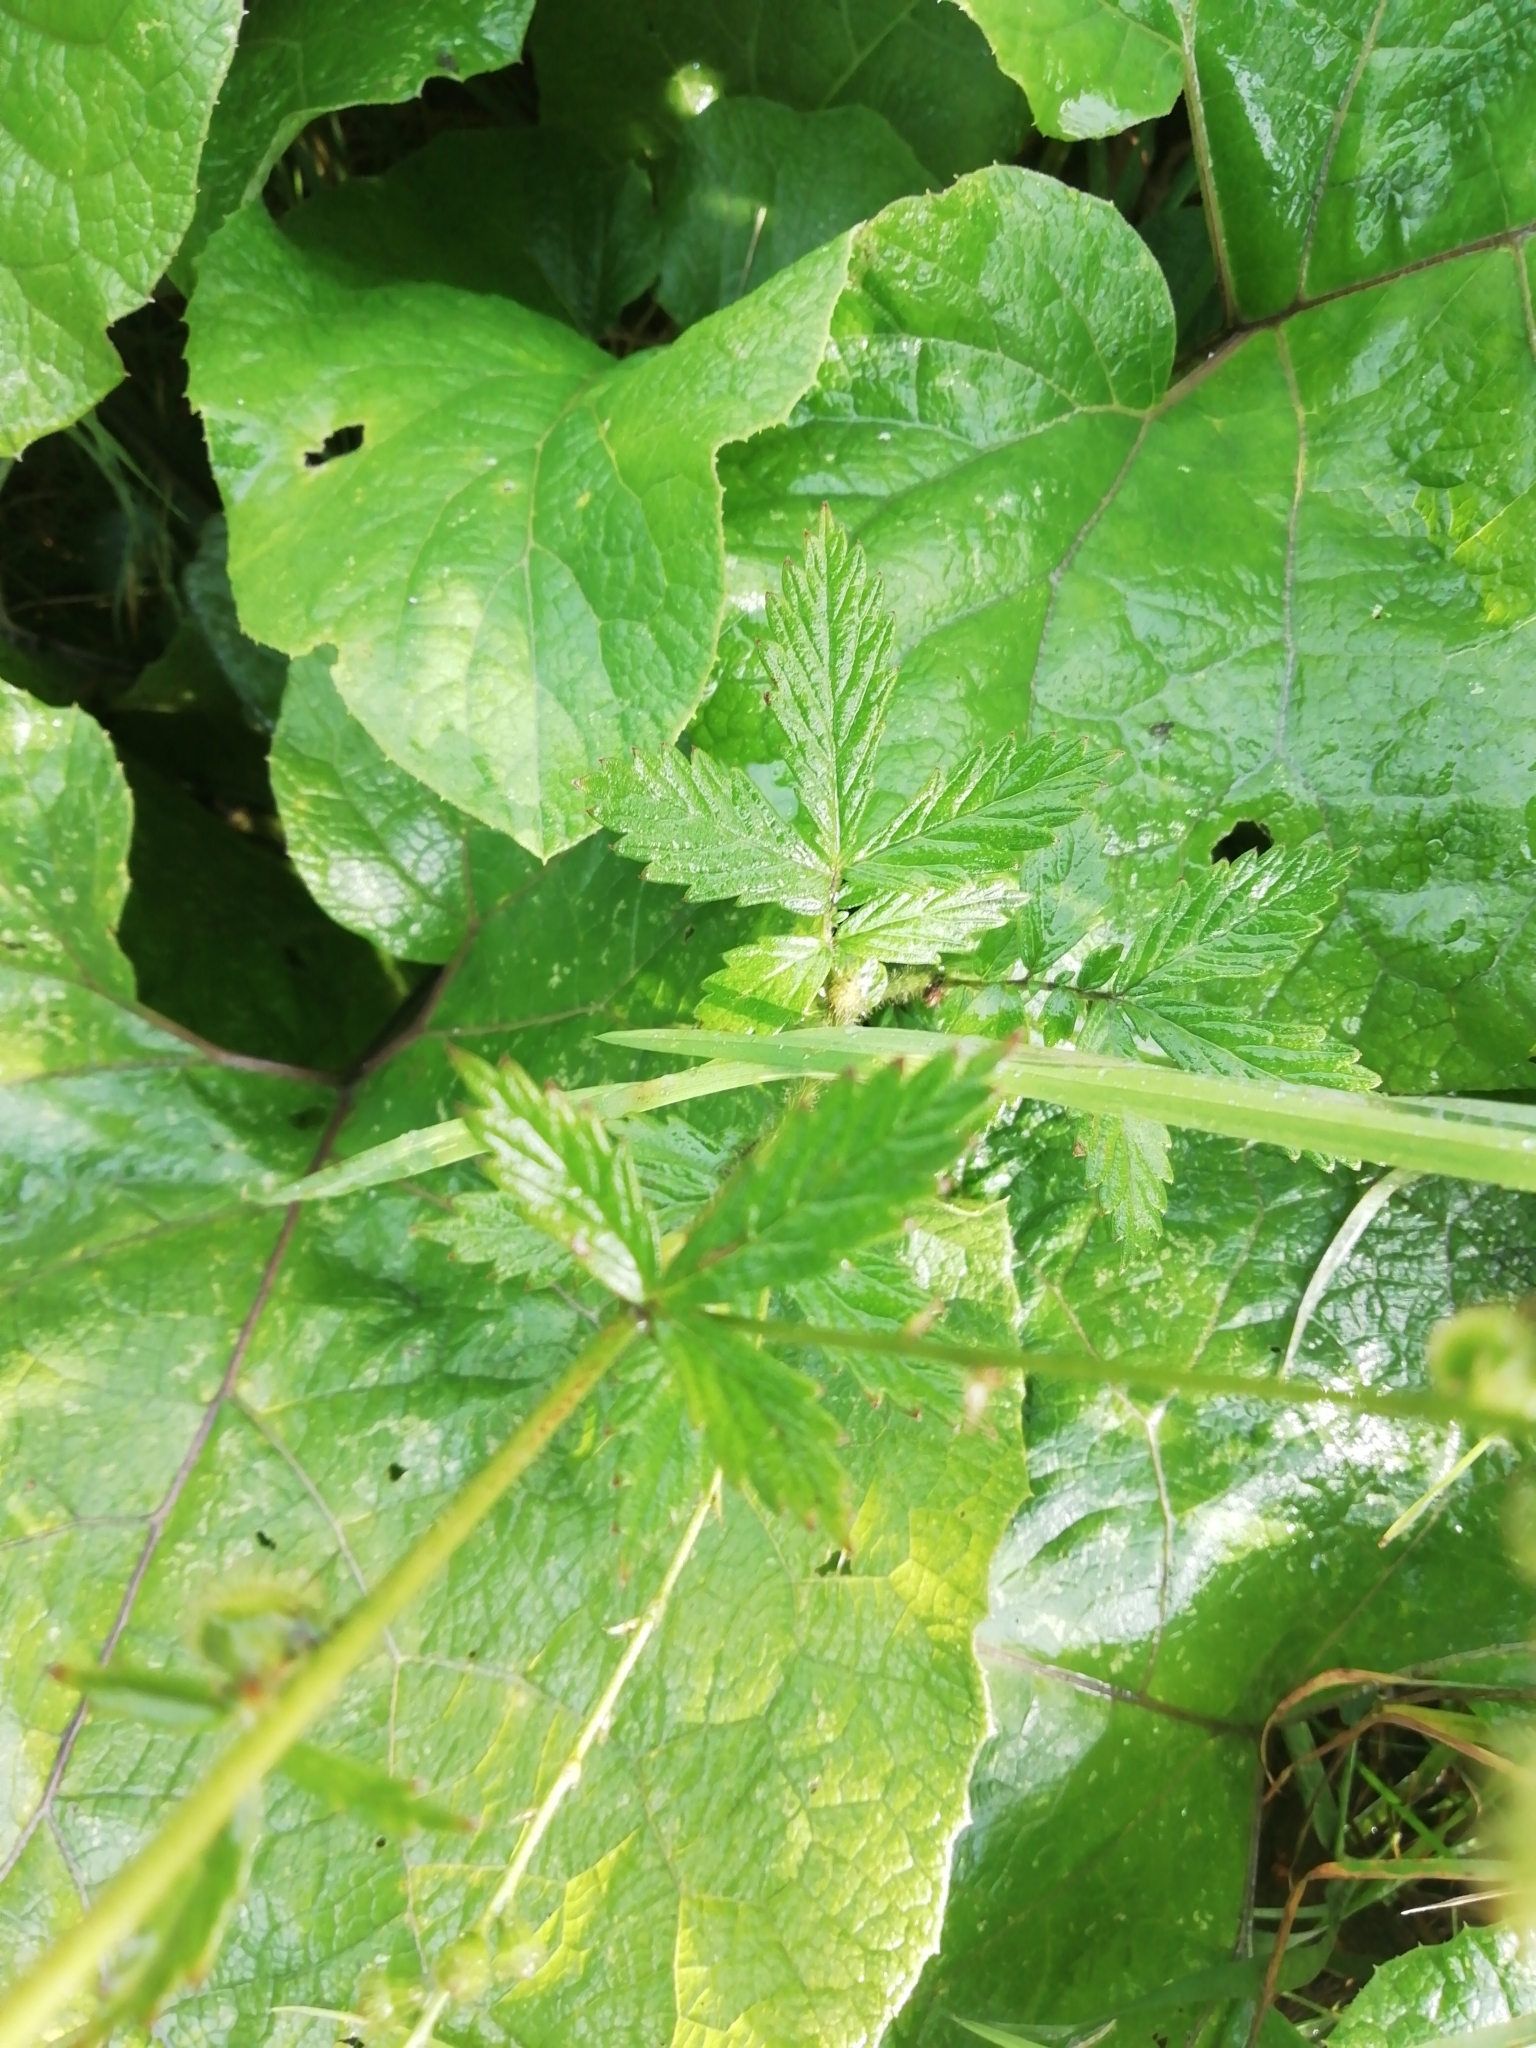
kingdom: Plantae
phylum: Tracheophyta
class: Magnoliopsida
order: Rosales
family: Rosaceae
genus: Agrimonia
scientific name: Agrimonia pilosa
